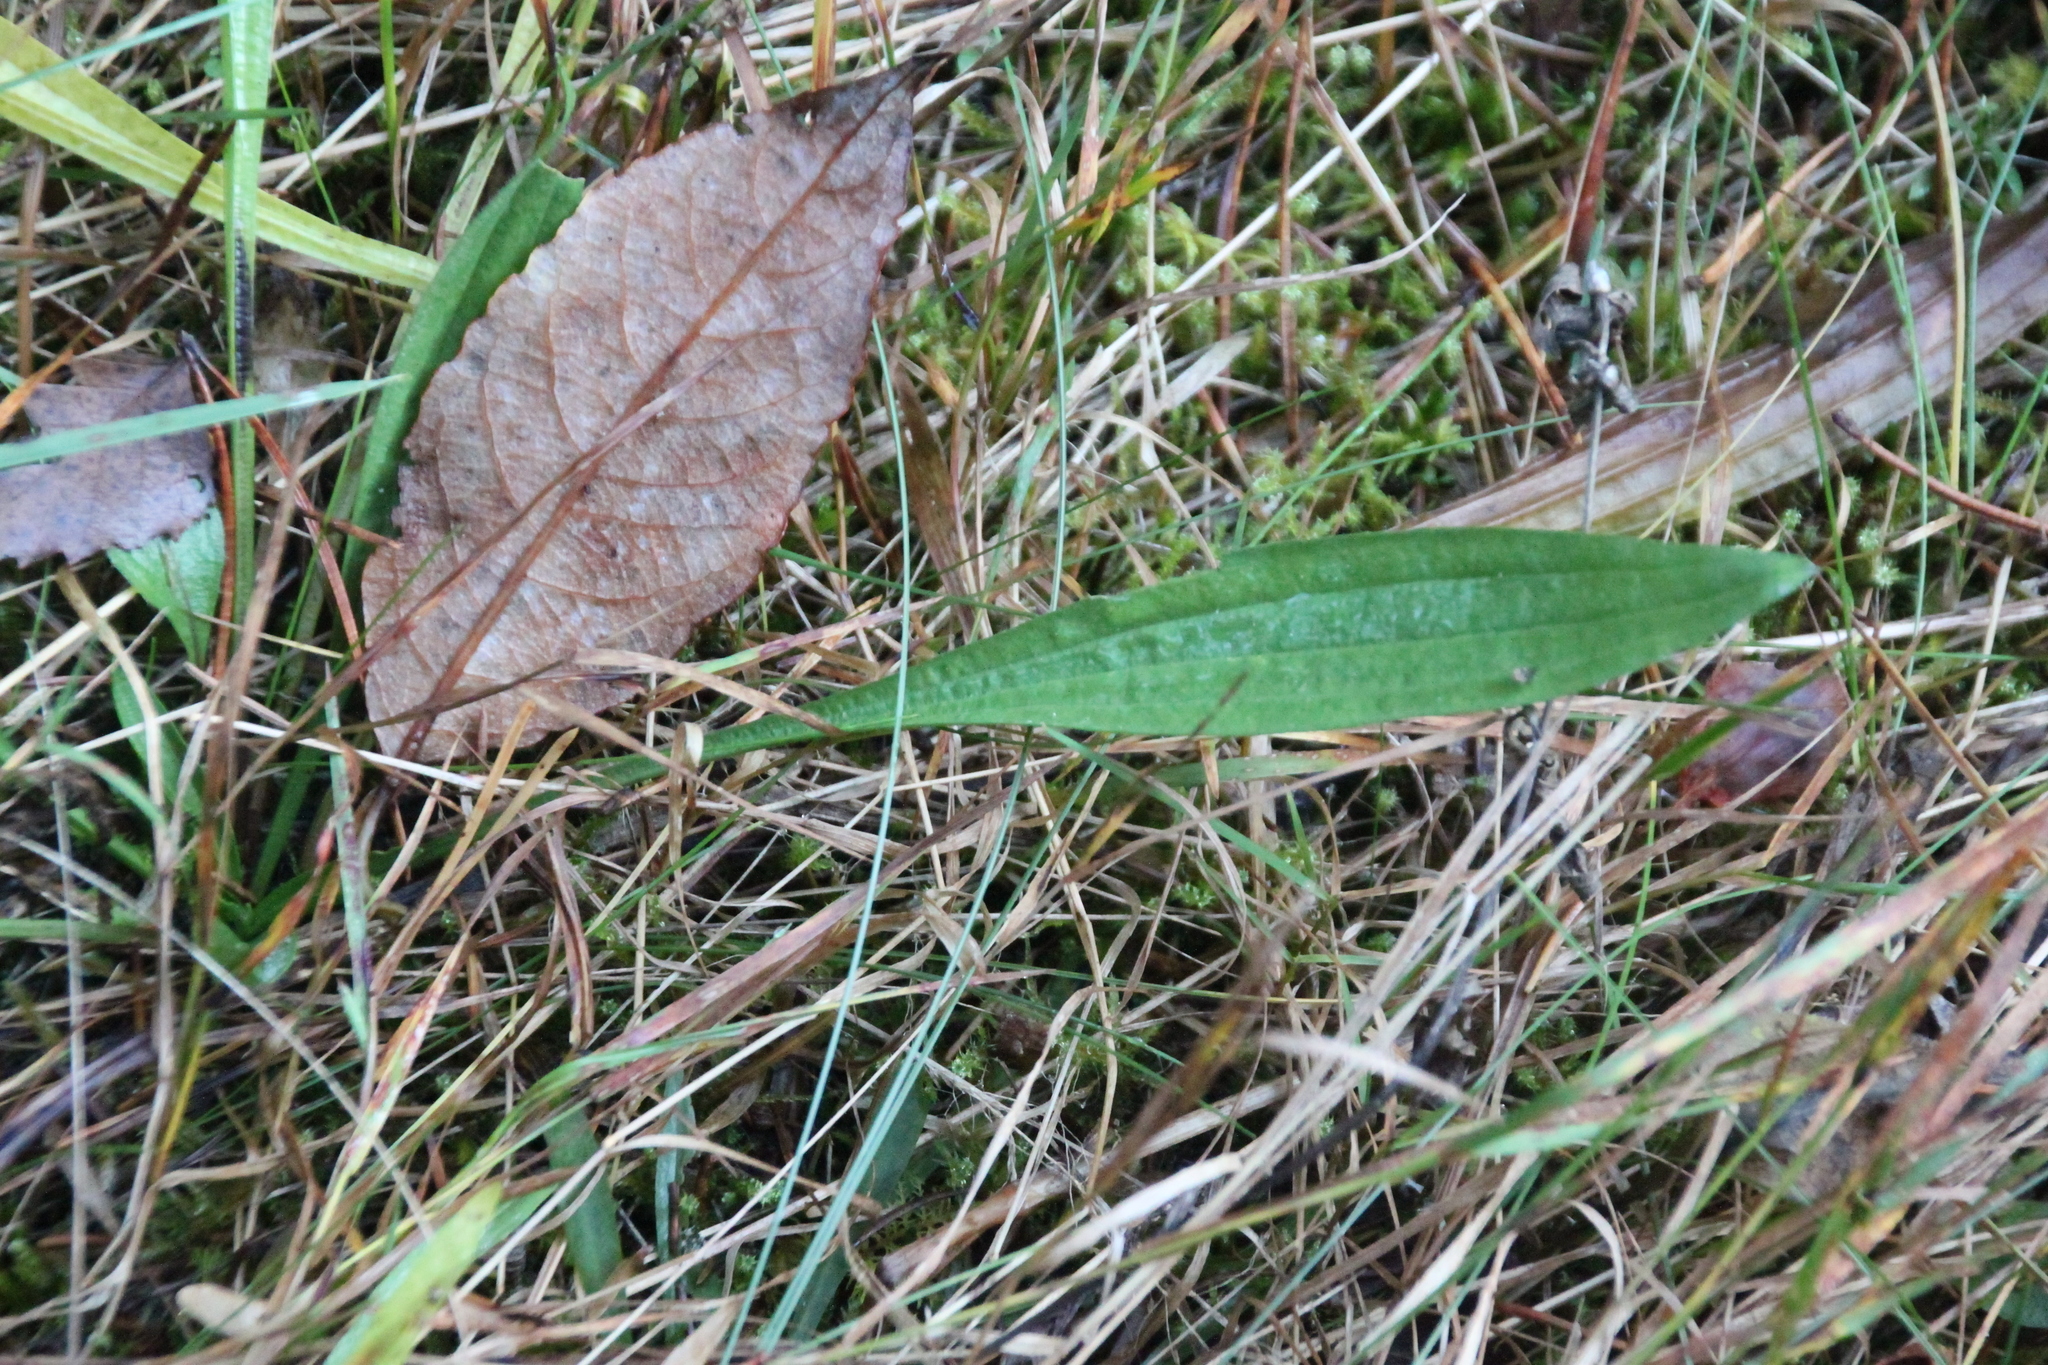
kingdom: Plantae
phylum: Tracheophyta
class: Magnoliopsida
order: Lamiales
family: Plantaginaceae
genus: Plantago
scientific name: Plantago lanceolata
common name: Ribwort plantain
